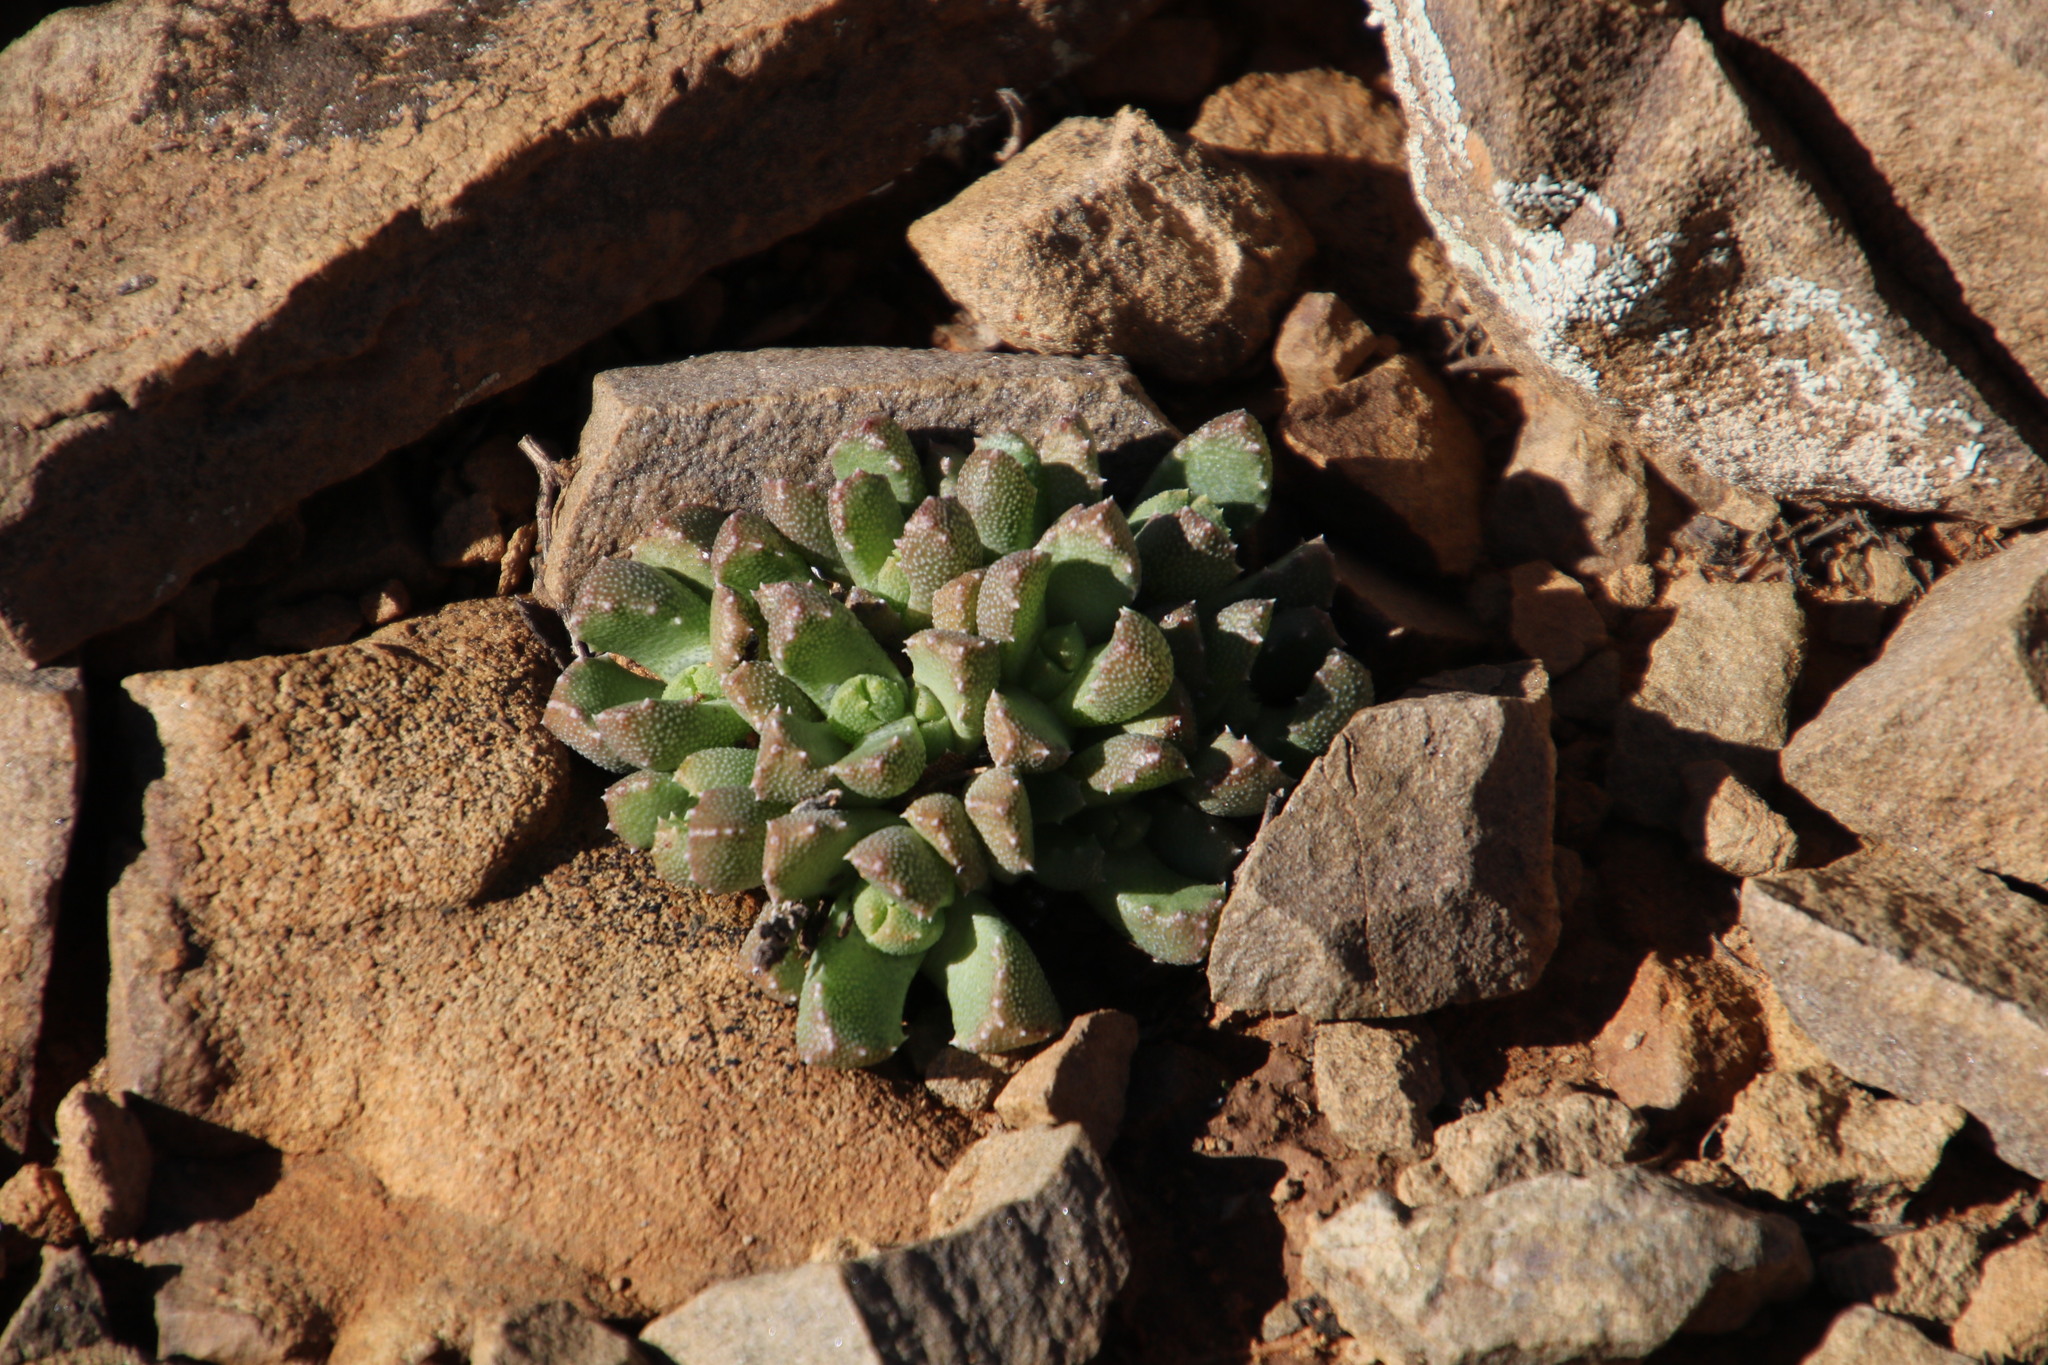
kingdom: Plantae
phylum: Tracheophyta
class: Magnoliopsida
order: Caryophyllales
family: Aizoaceae
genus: Stomatium
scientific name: Stomatium viride
